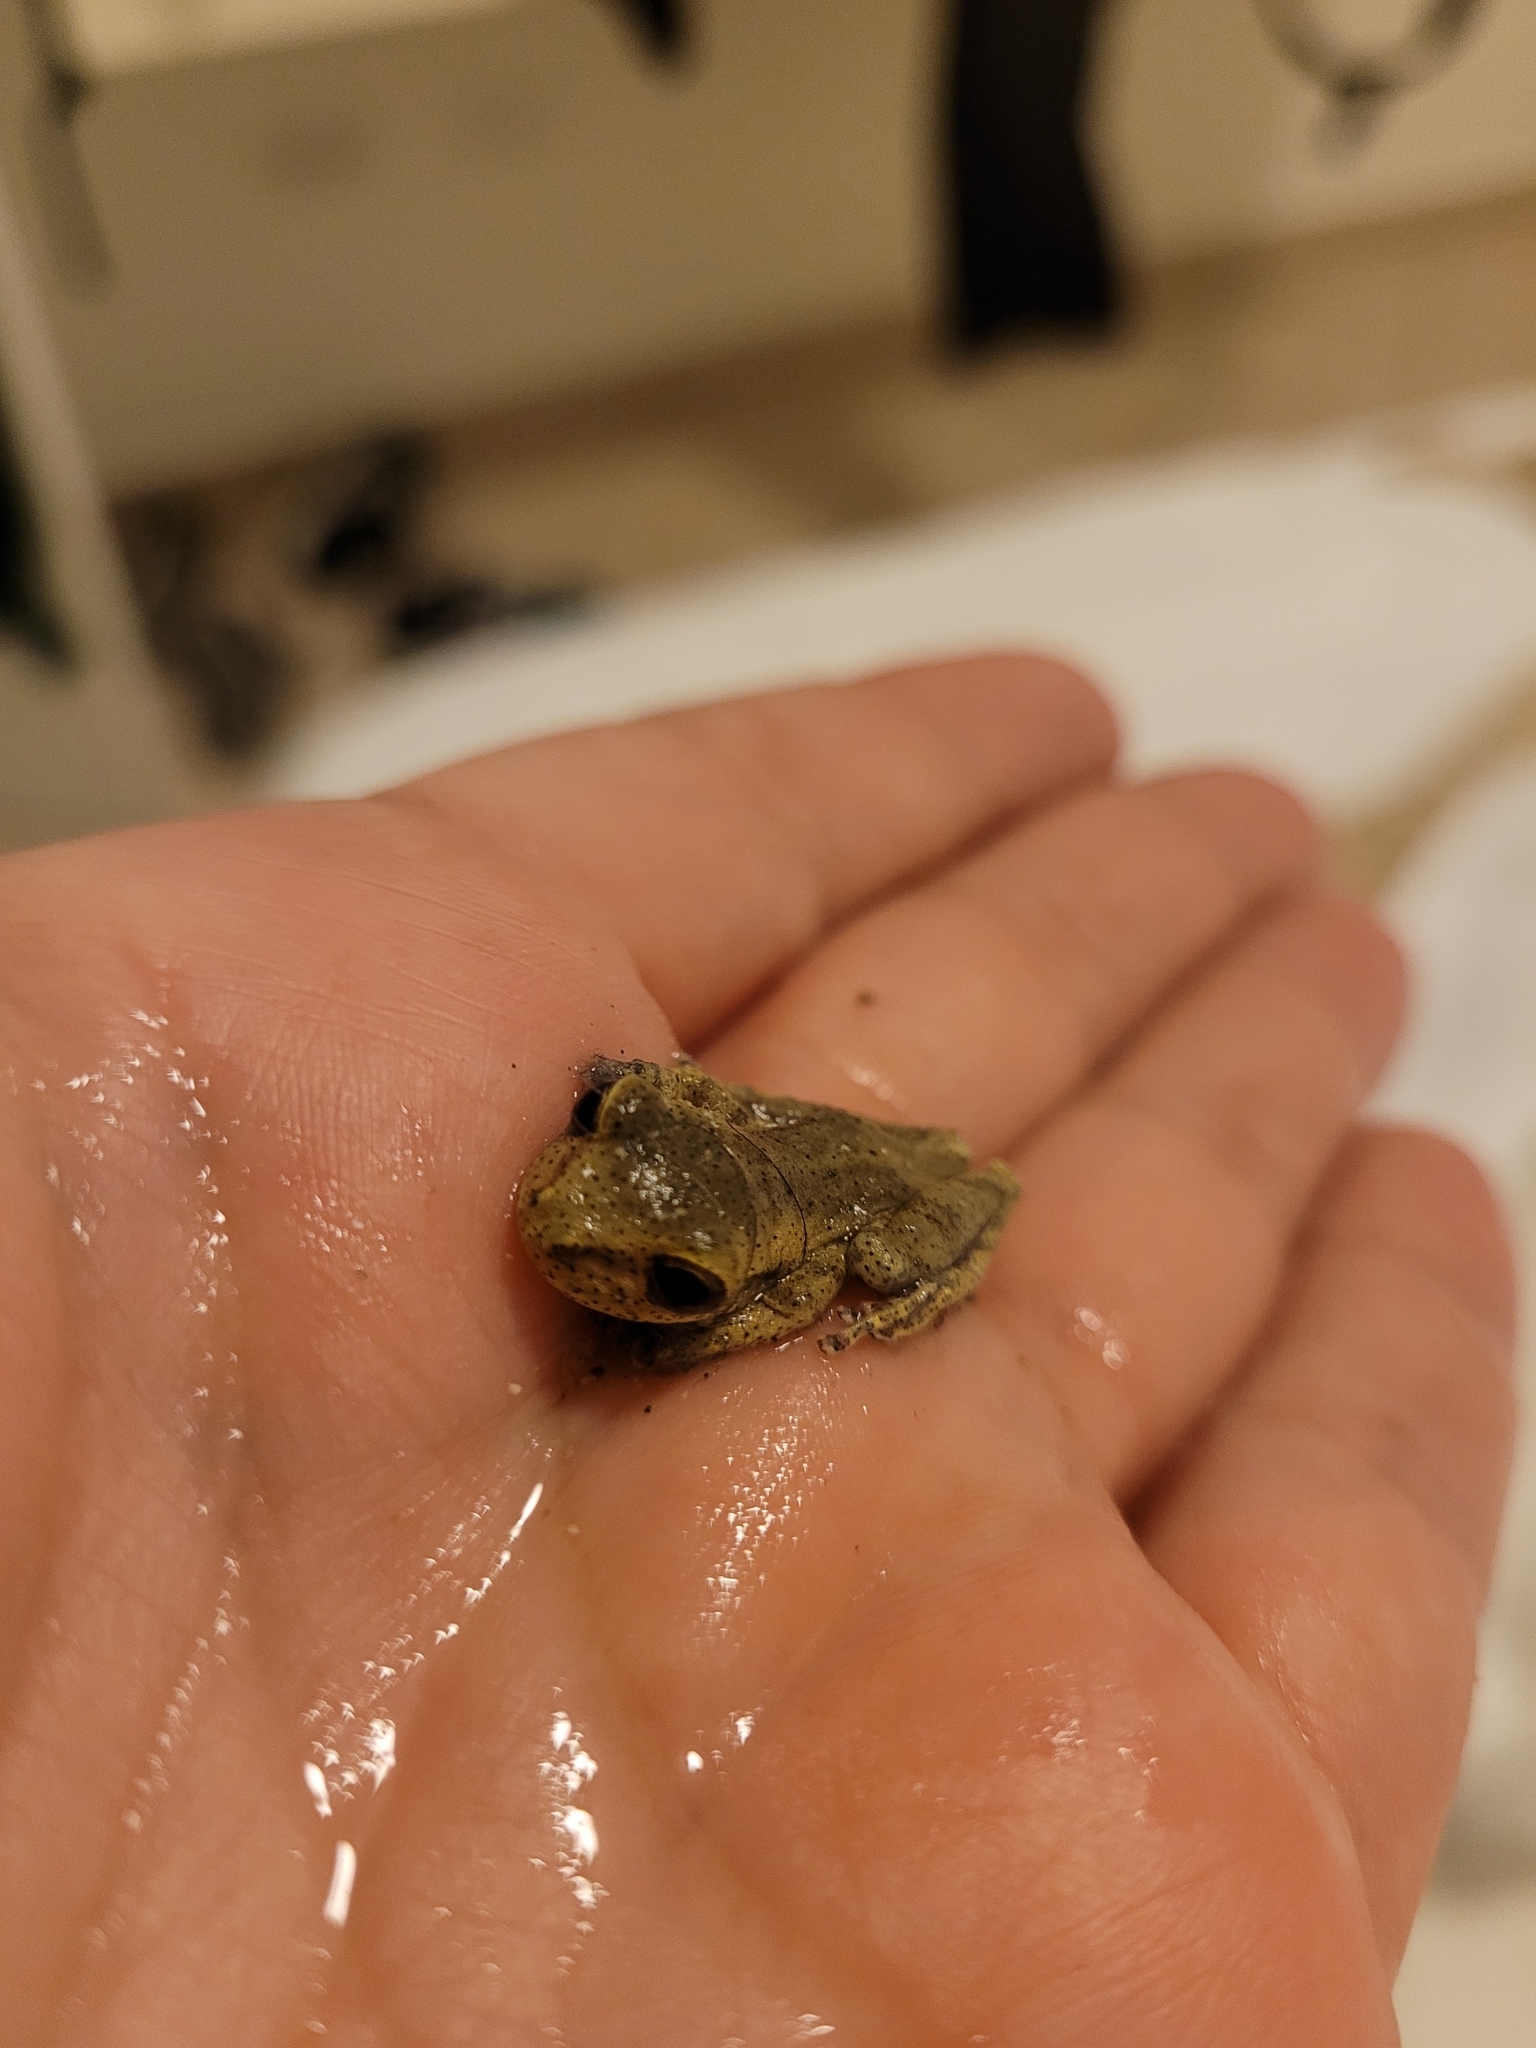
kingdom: Animalia
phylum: Chordata
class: Amphibia
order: Anura
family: Hylidae
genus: Osteopilus
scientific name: Osteopilus dominicensis
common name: Hispaniolan common treefrog
